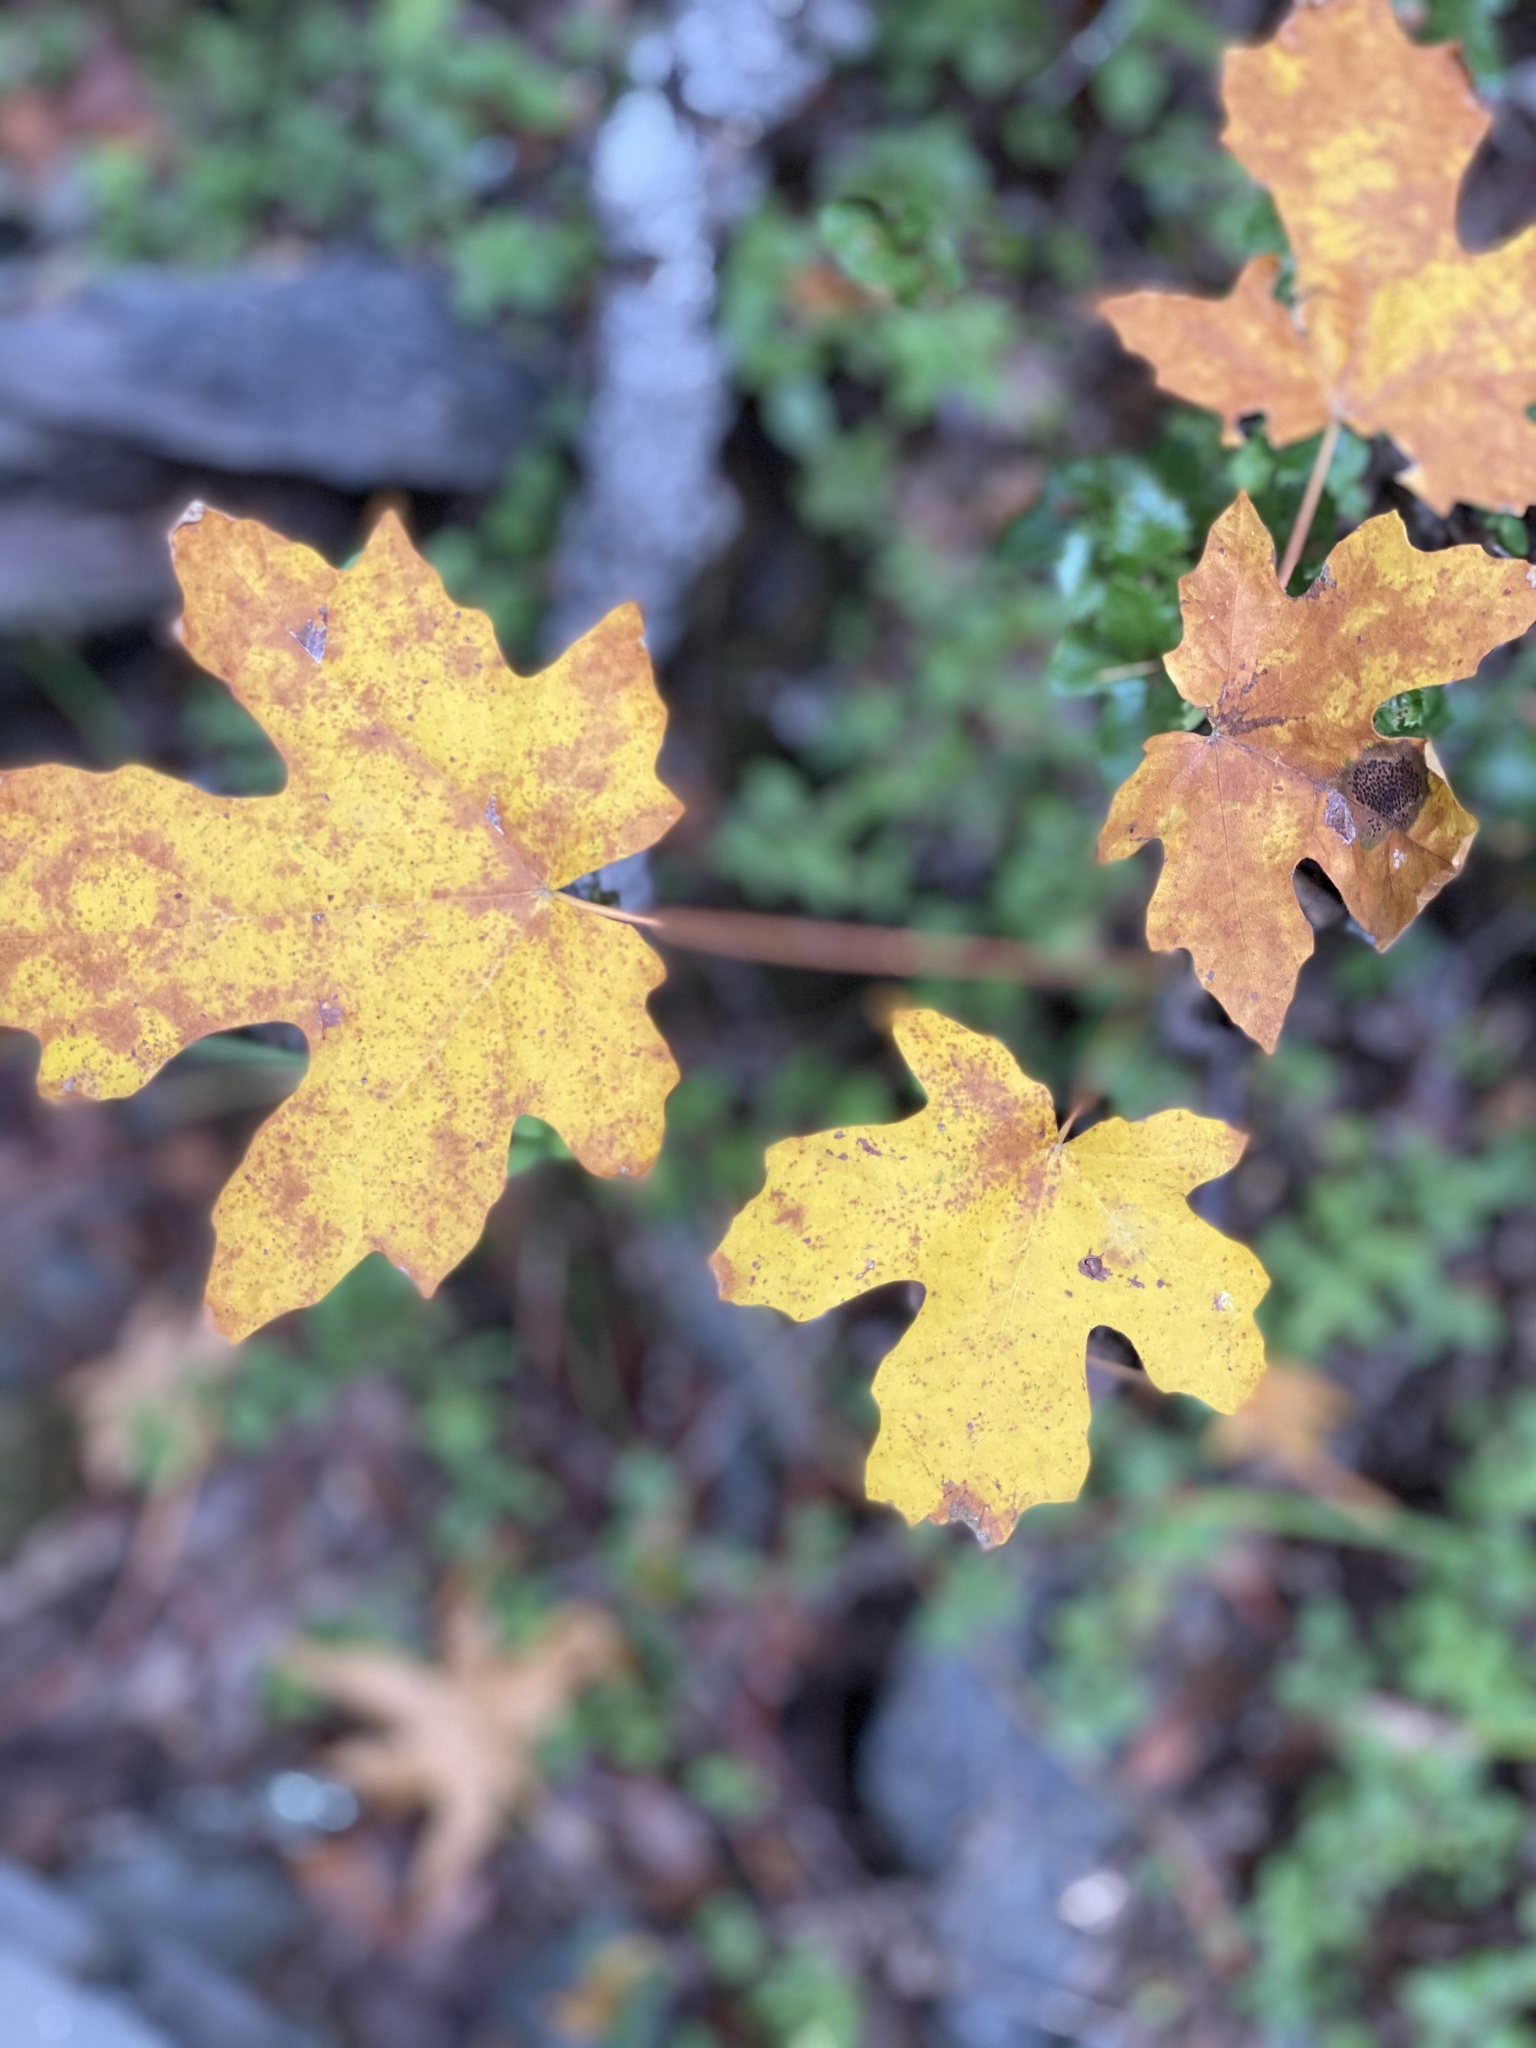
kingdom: Plantae
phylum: Tracheophyta
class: Magnoliopsida
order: Sapindales
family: Sapindaceae
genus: Acer
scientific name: Acer macrophyllum
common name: Oregon maple
